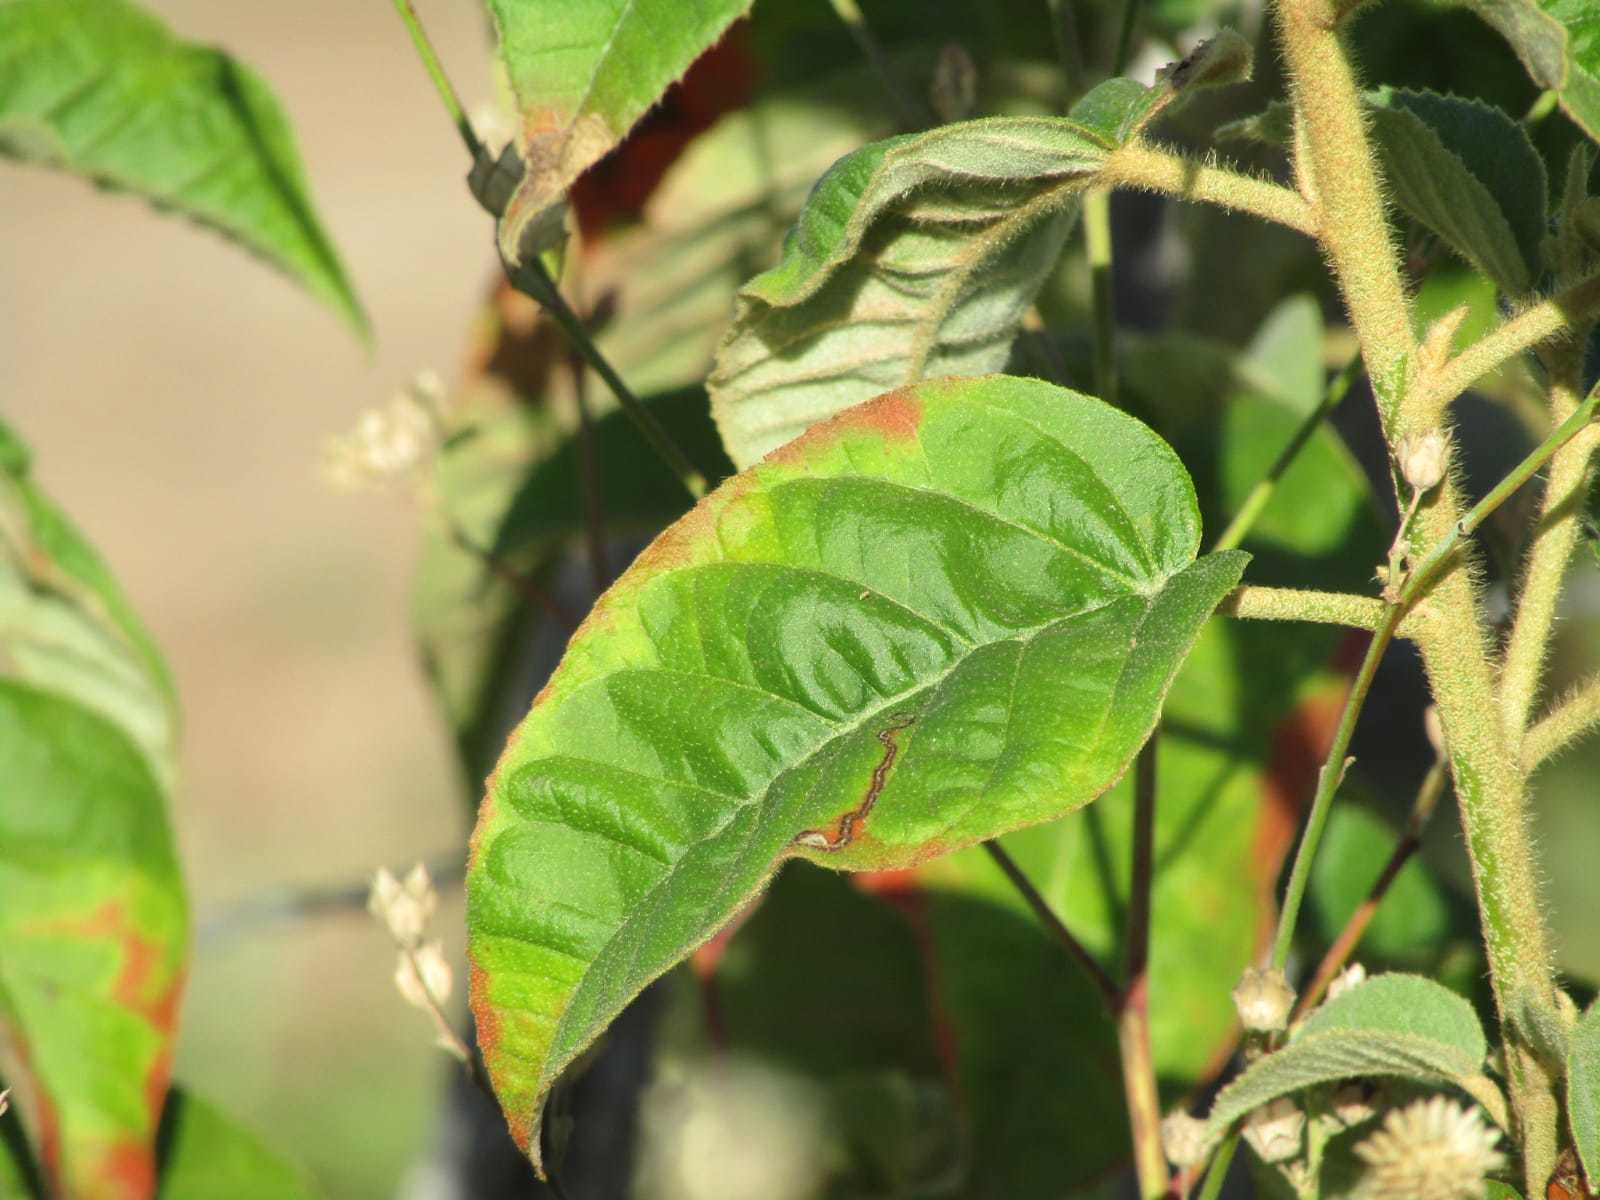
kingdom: Plantae
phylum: Tracheophyta
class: Magnoliopsida
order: Malpighiales
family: Euphorbiaceae
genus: Croton
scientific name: Croton heliotropiifolius
